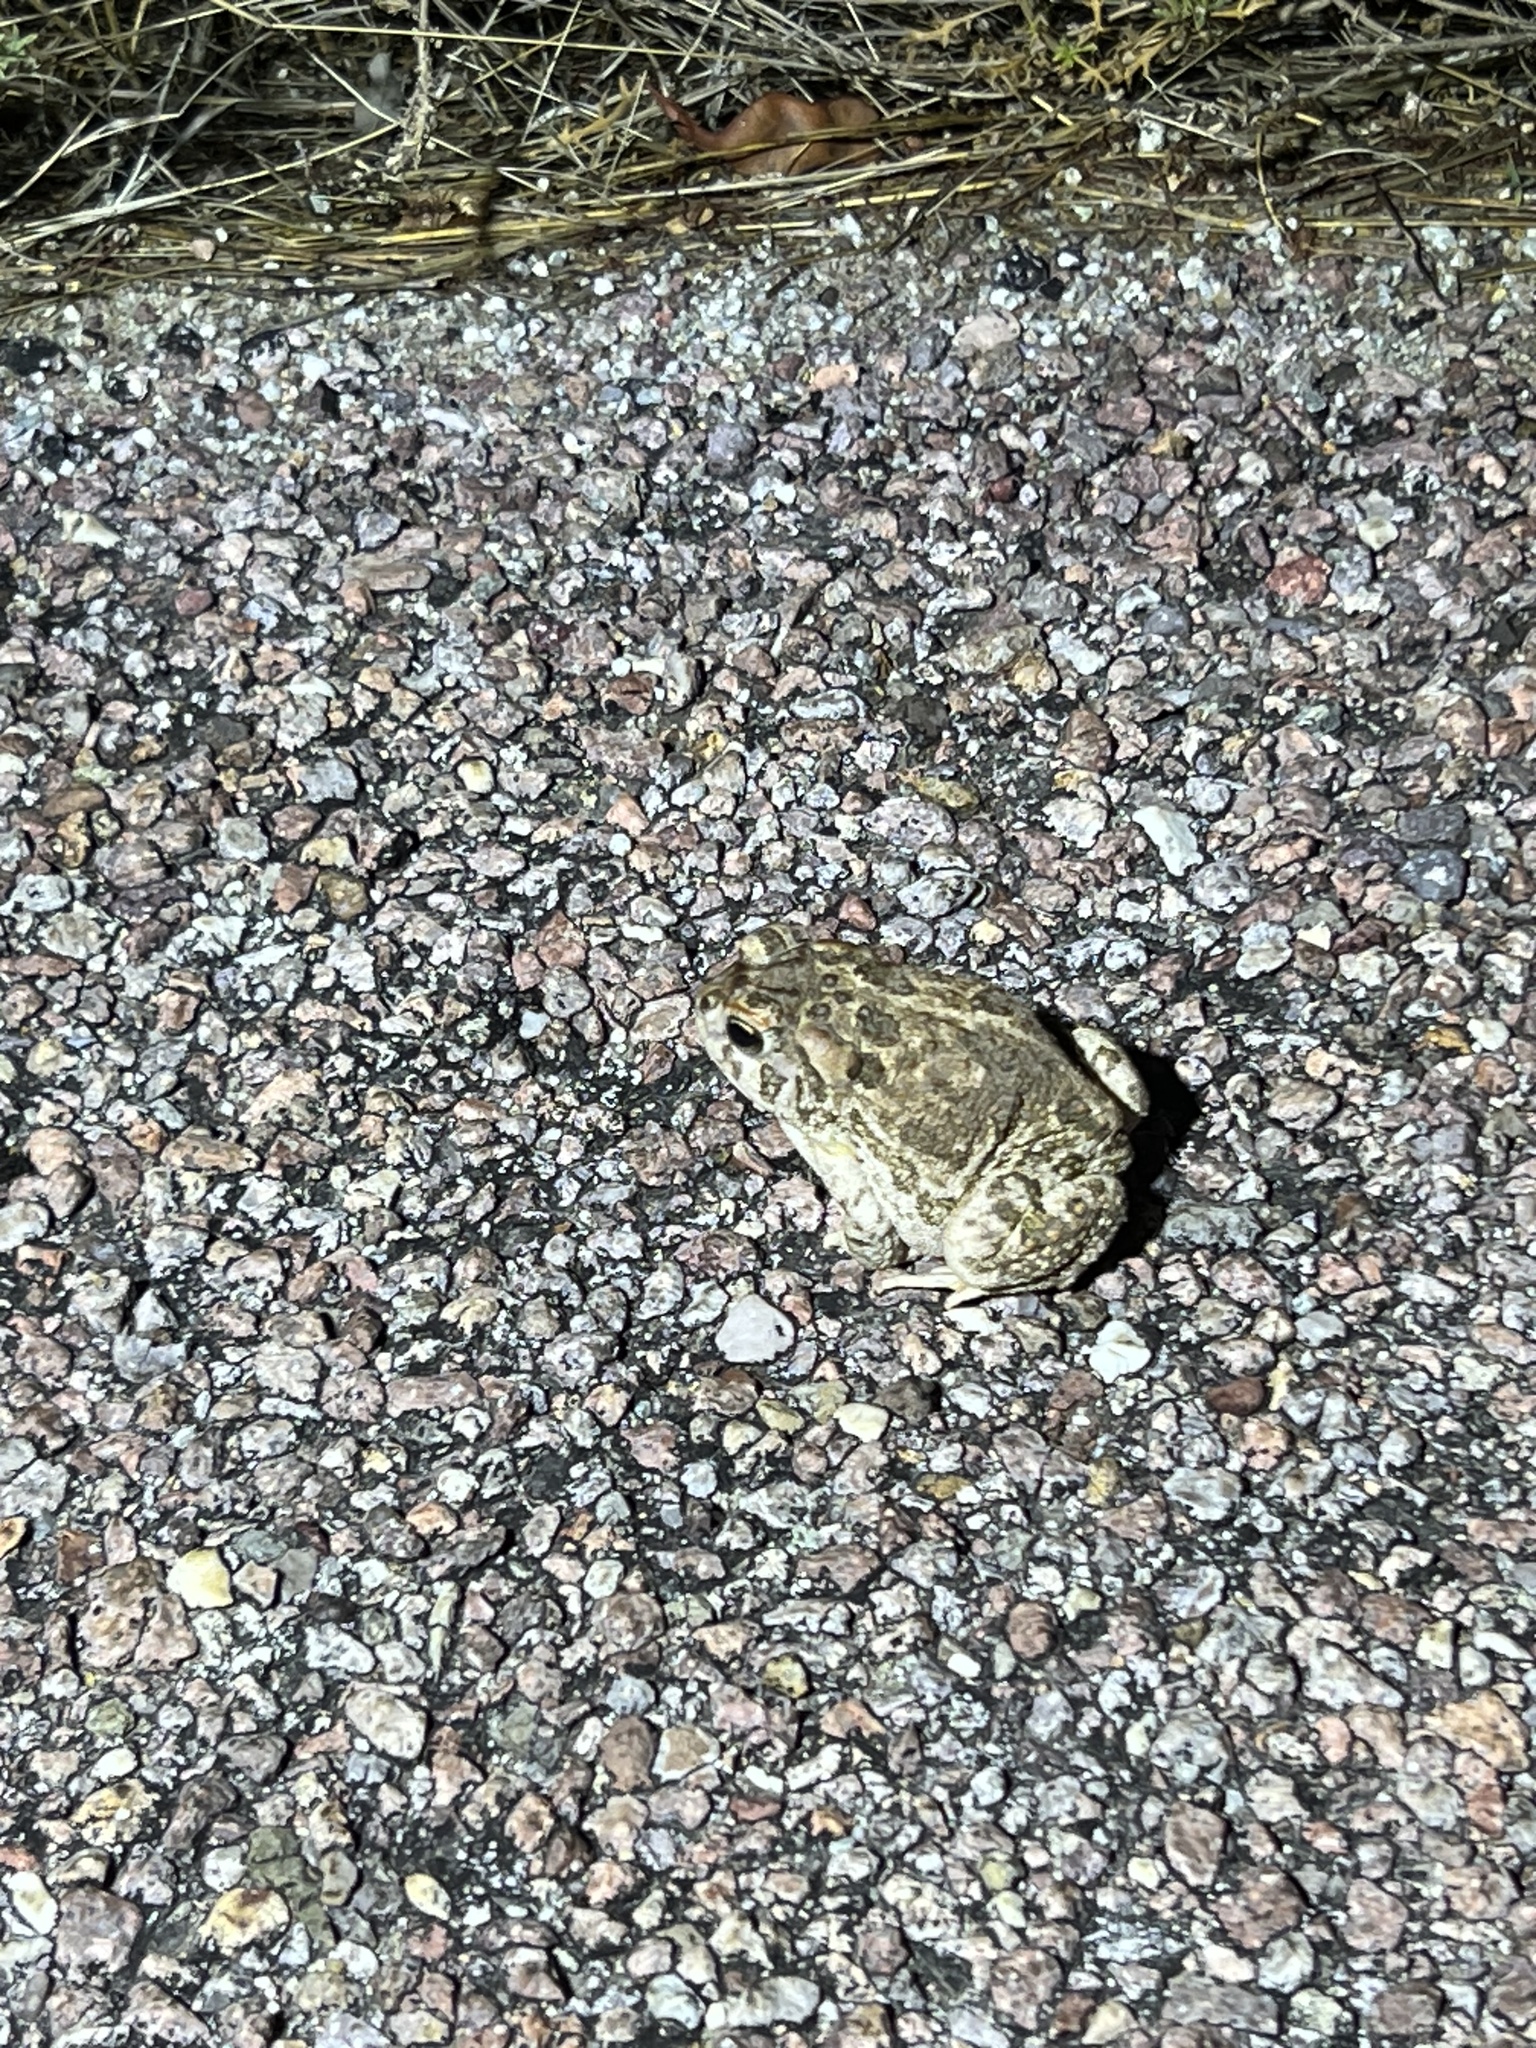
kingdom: Animalia
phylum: Chordata
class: Amphibia
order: Anura
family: Bufonidae
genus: Anaxyrus
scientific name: Anaxyrus cognatus
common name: Great plains toad
